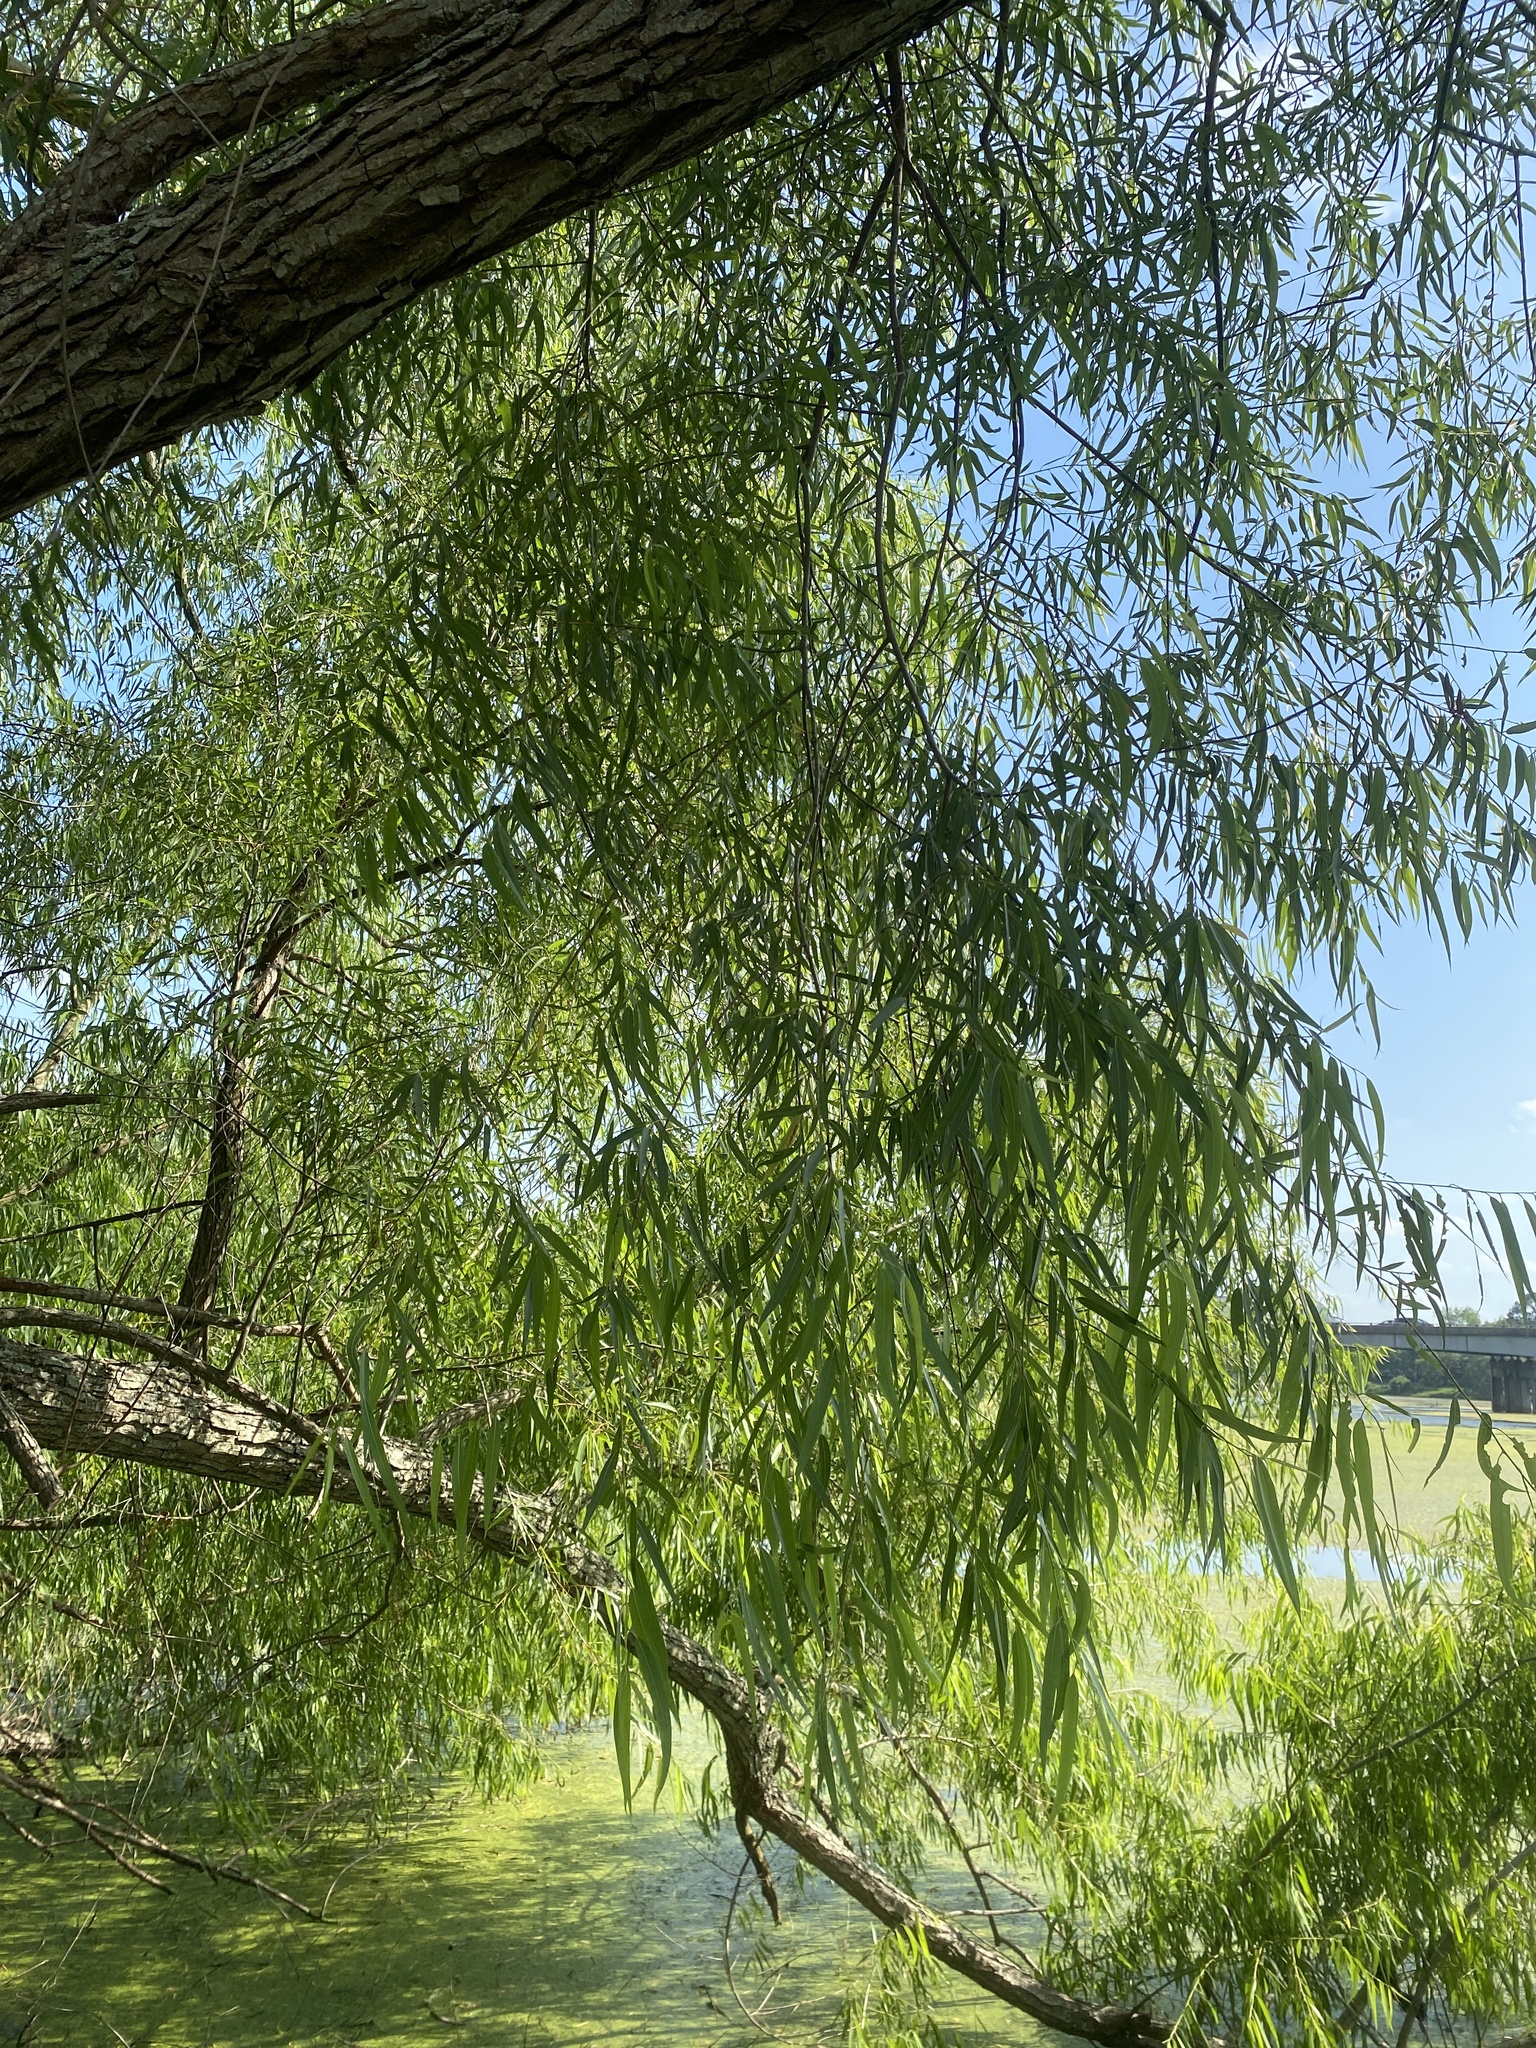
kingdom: Plantae
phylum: Tracheophyta
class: Magnoliopsida
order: Malpighiales
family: Salicaceae
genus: Salix
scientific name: Salix nigra
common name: Black willow
